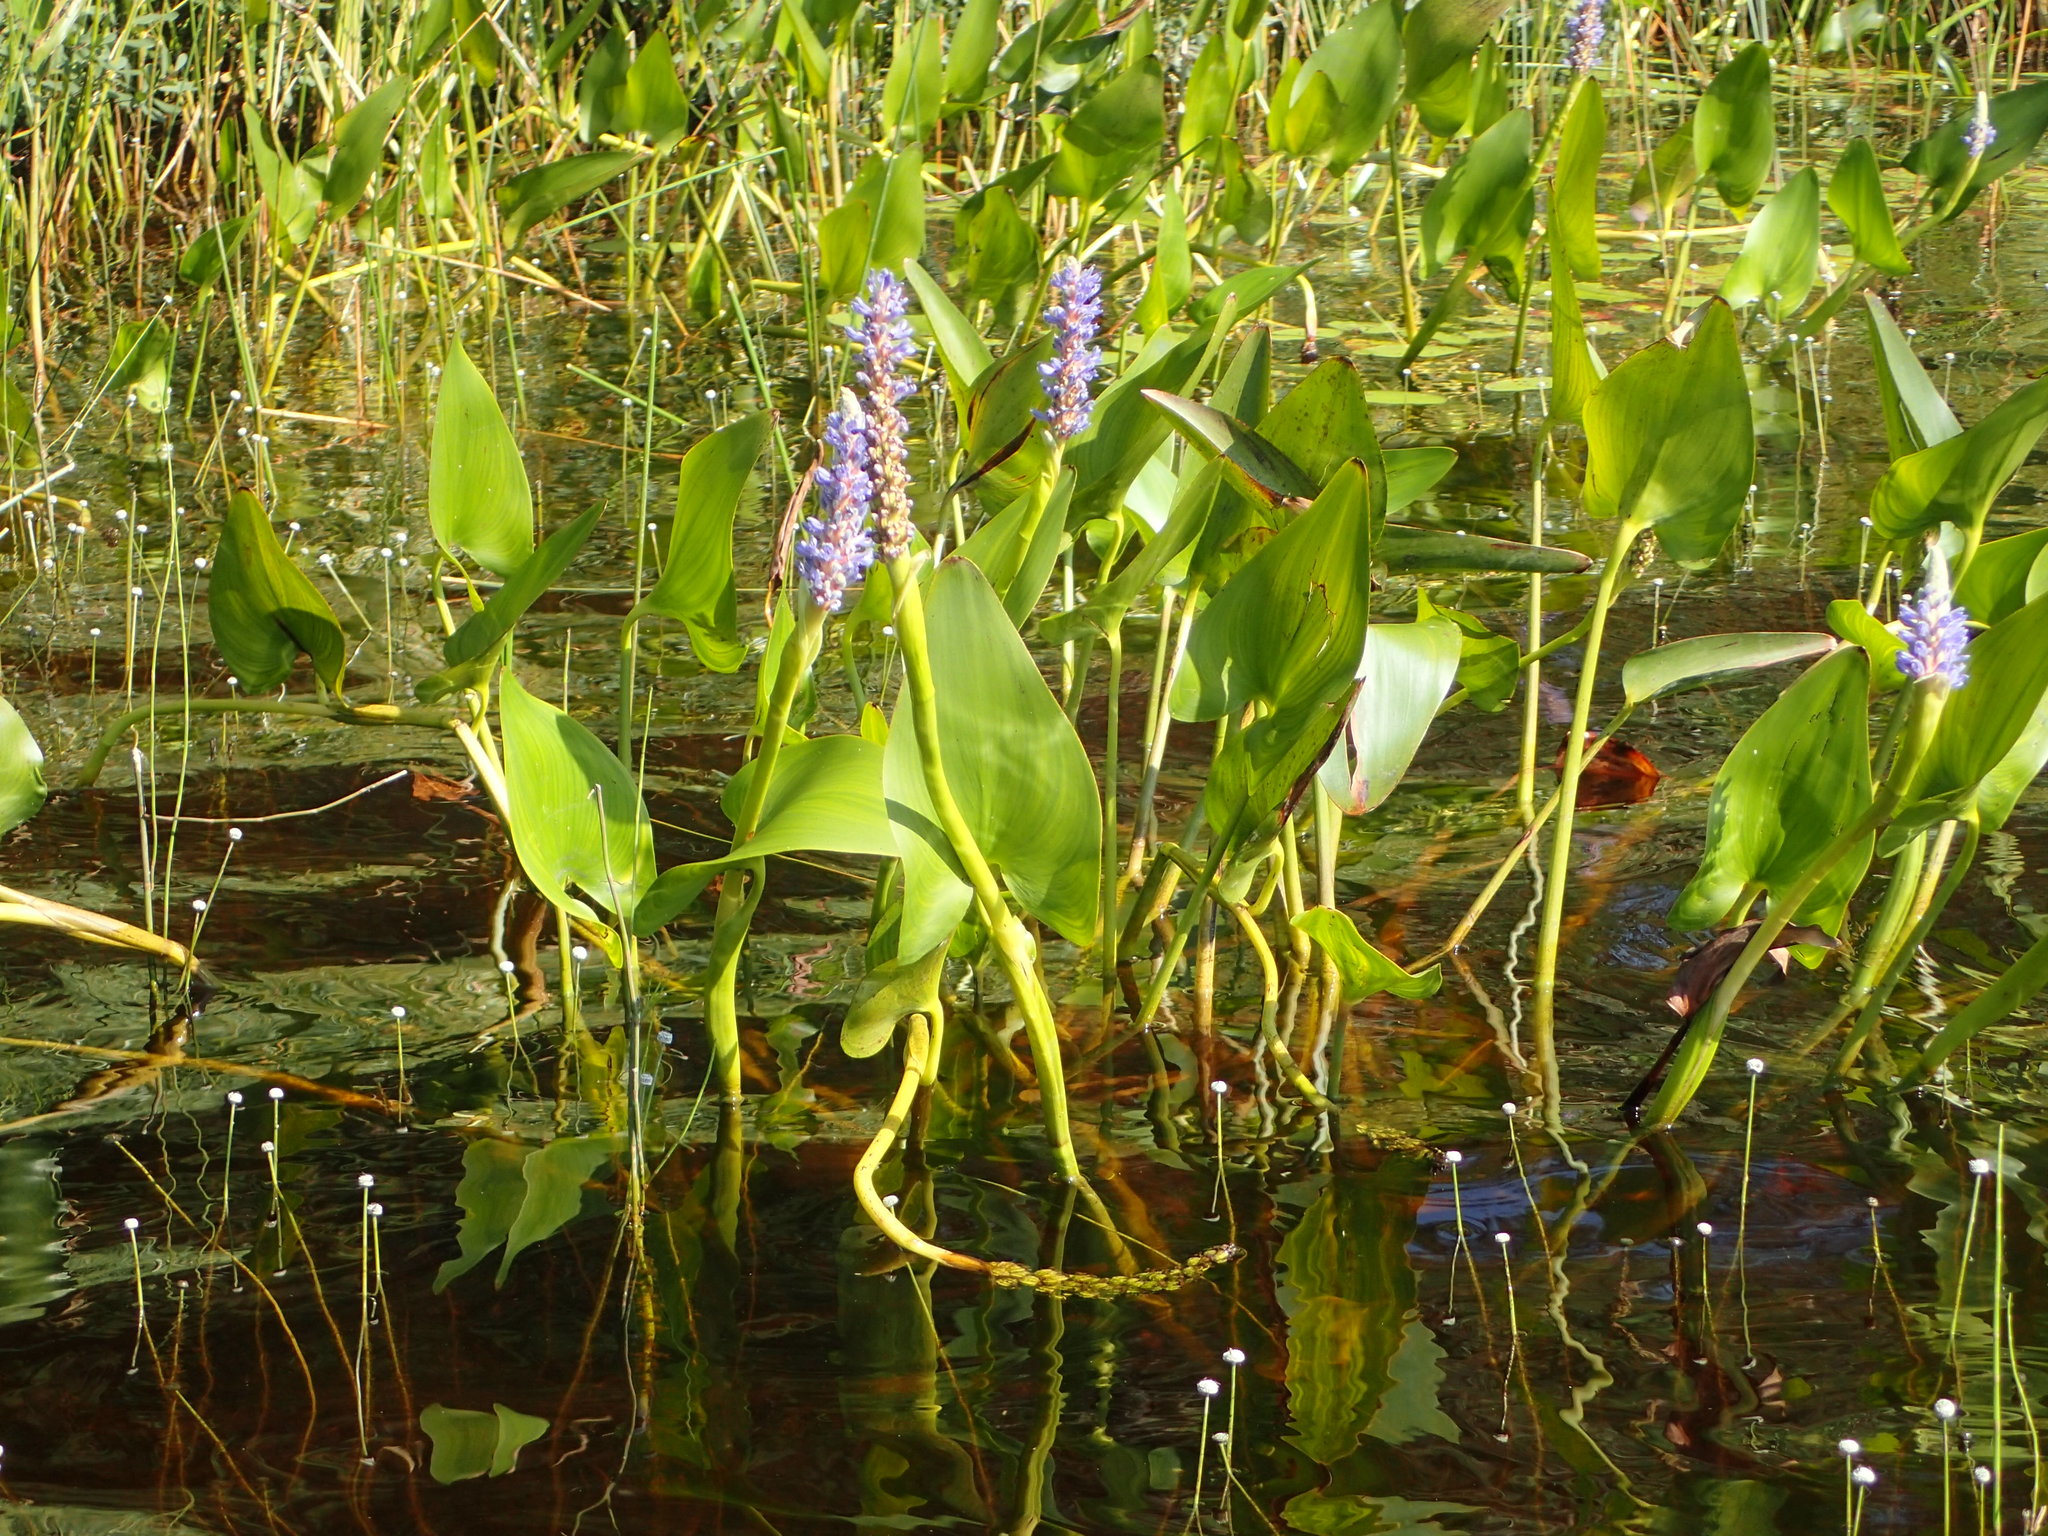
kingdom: Plantae
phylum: Tracheophyta
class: Liliopsida
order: Commelinales
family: Pontederiaceae
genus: Pontederia
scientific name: Pontederia cordata
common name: Pickerelweed
